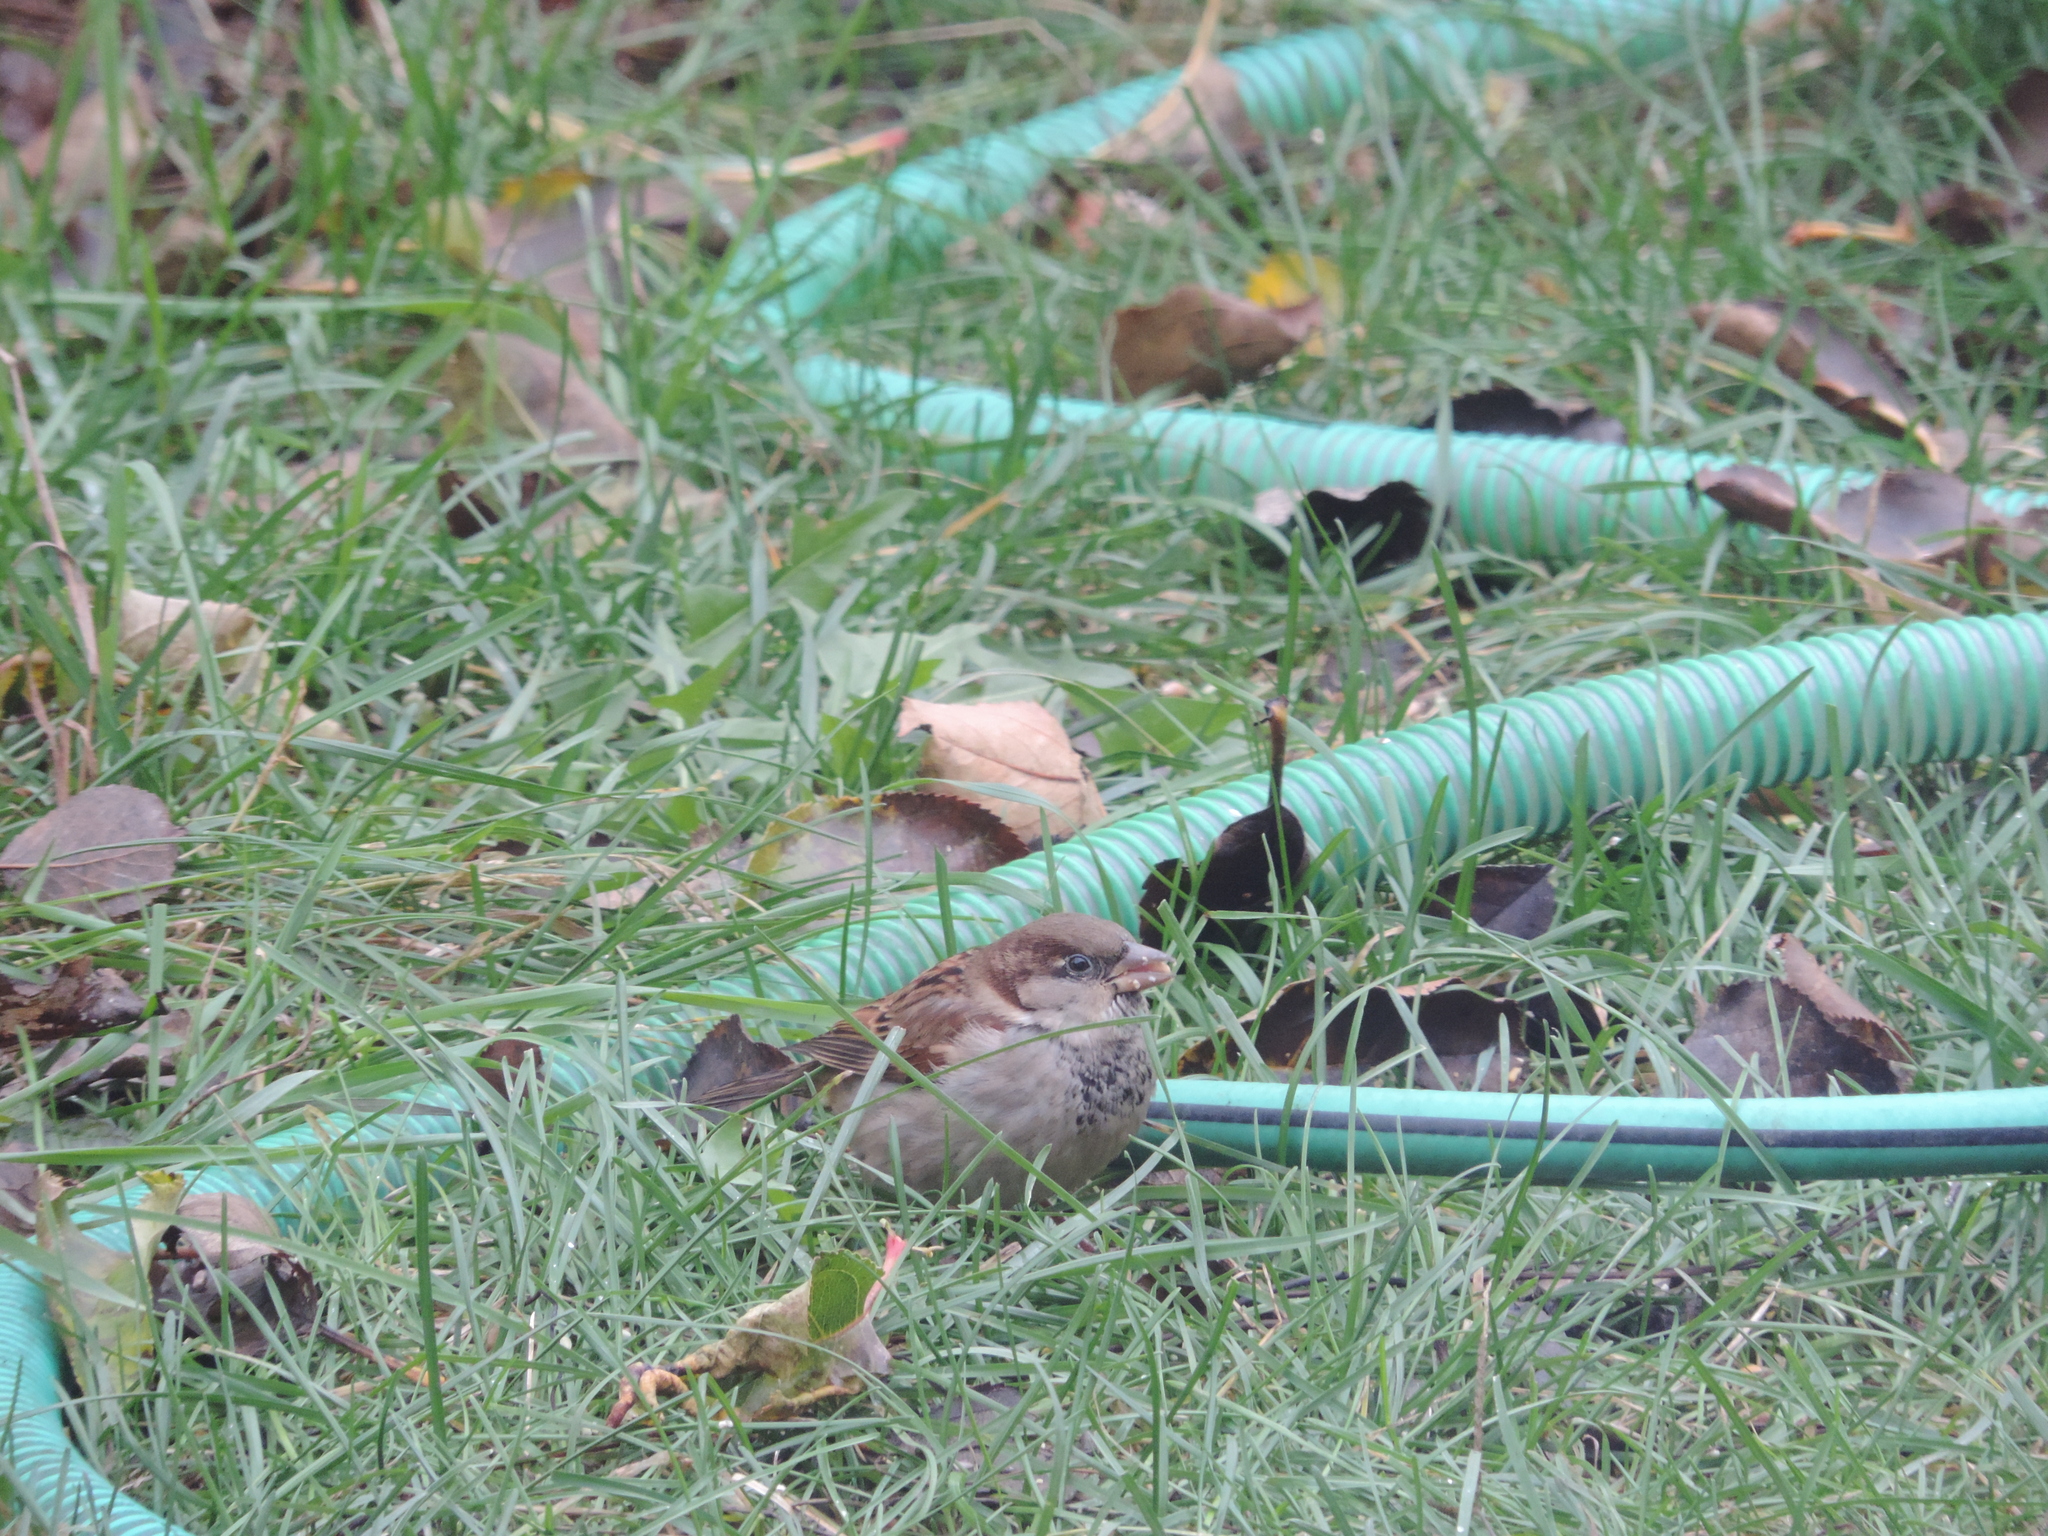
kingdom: Animalia
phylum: Chordata
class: Aves
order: Passeriformes
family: Passeridae
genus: Passer
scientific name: Passer domesticus
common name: House sparrow
